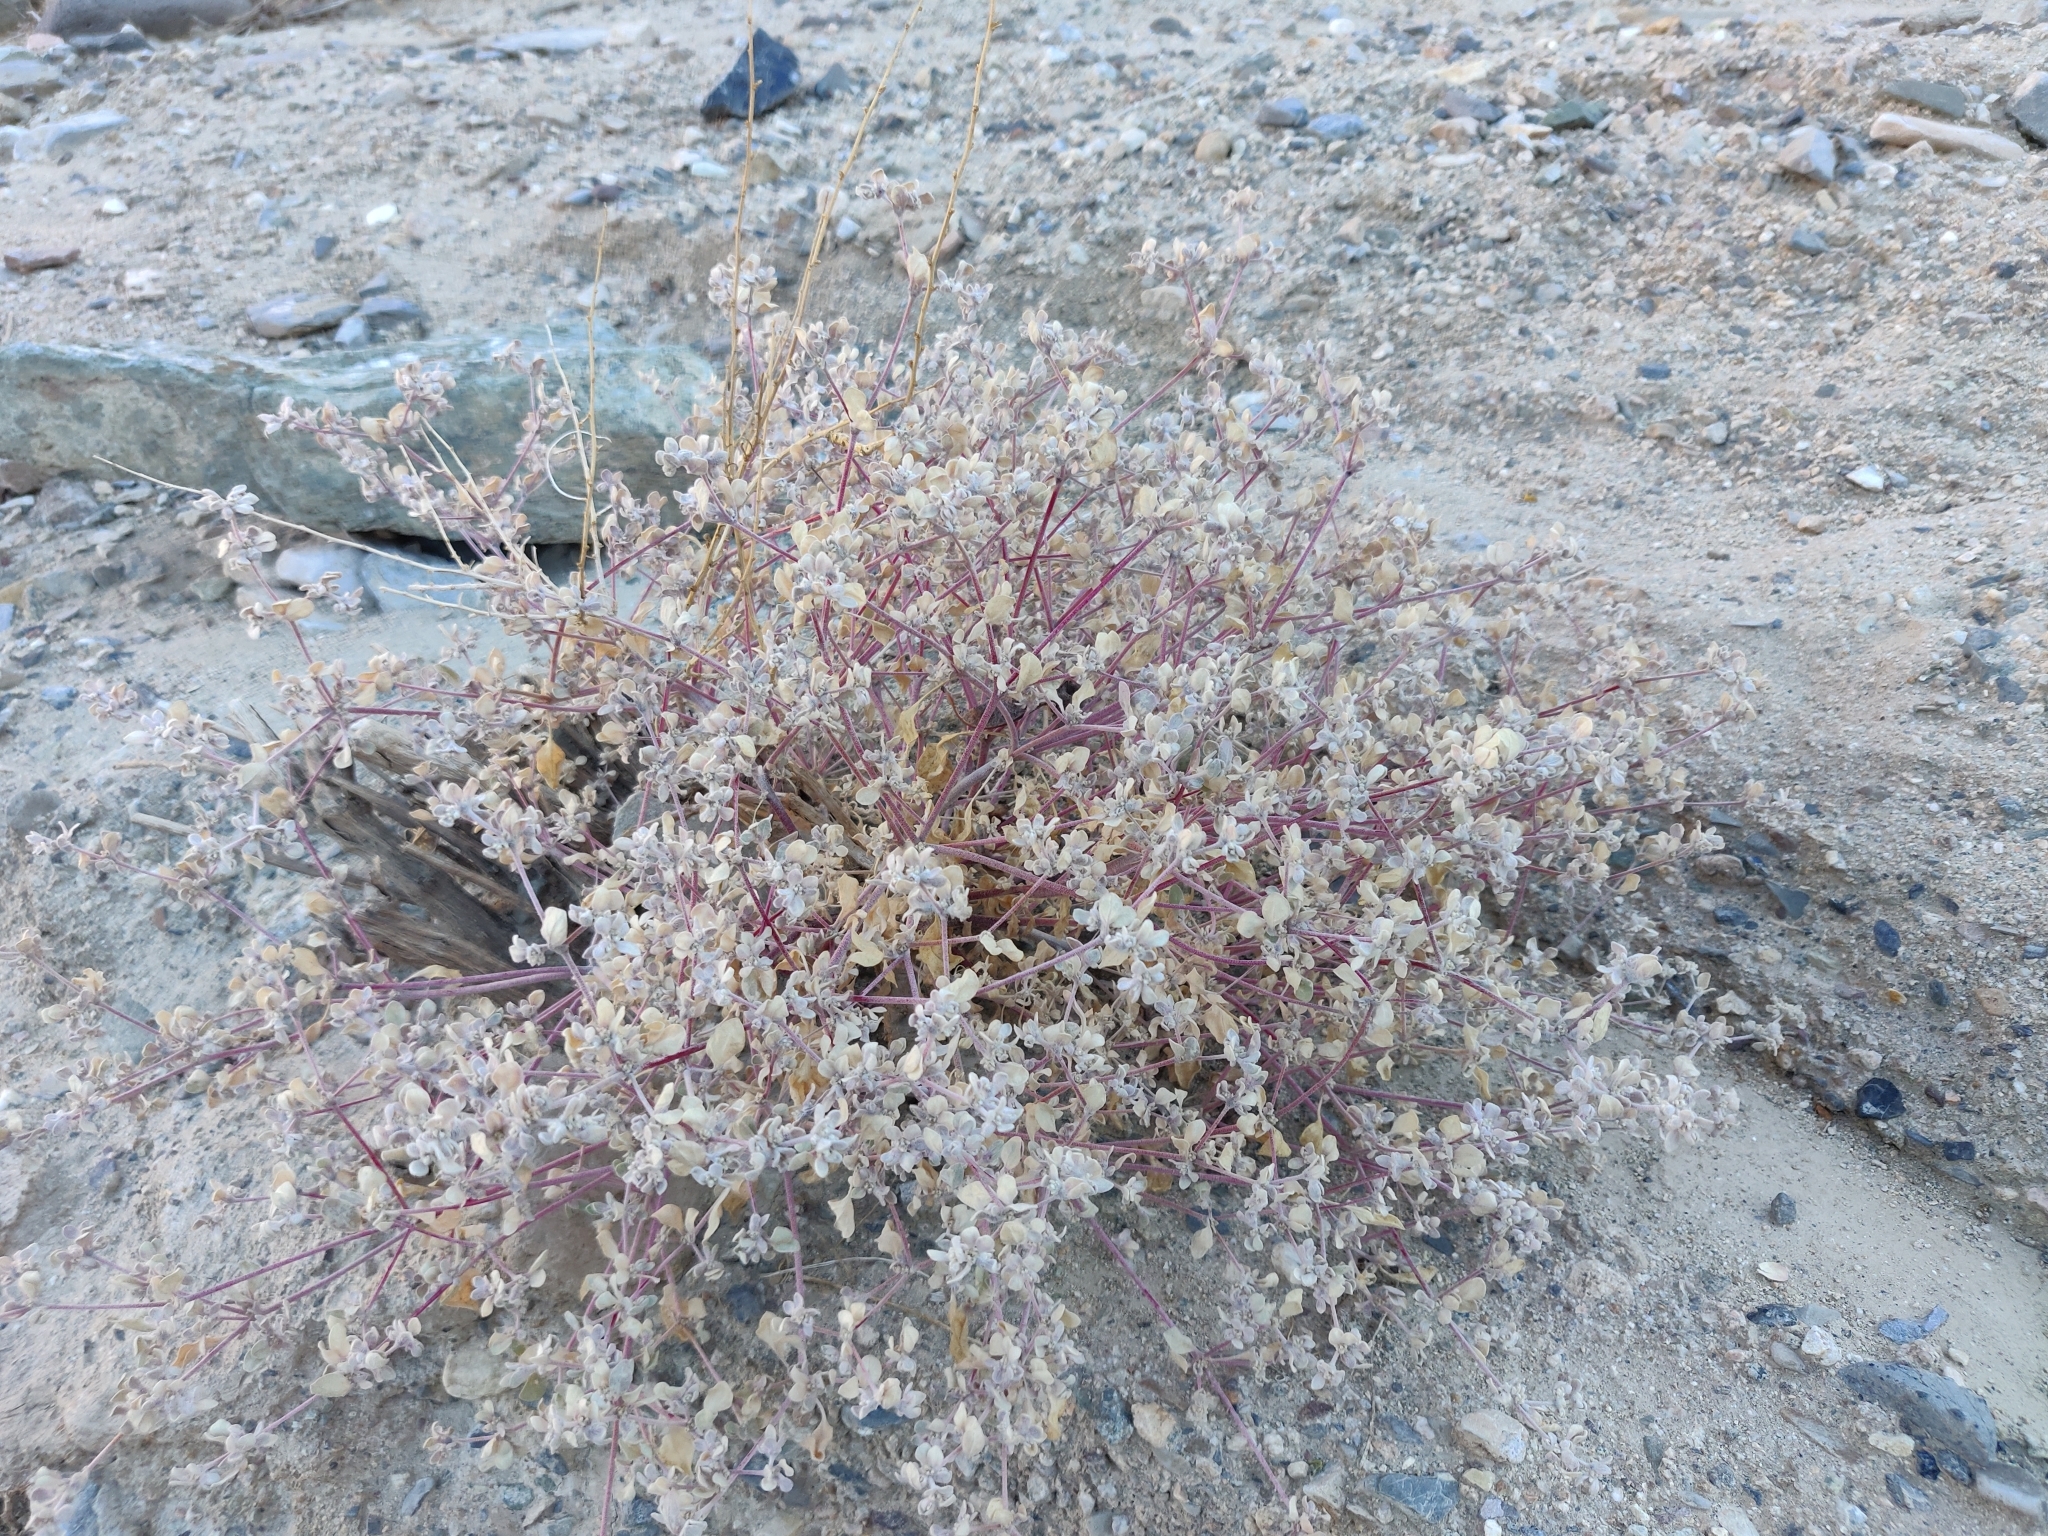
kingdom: Plantae
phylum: Tracheophyta
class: Magnoliopsida
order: Caryophyllales
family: Amaranthaceae
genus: Tidestromia
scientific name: Tidestromia suffruticosa
